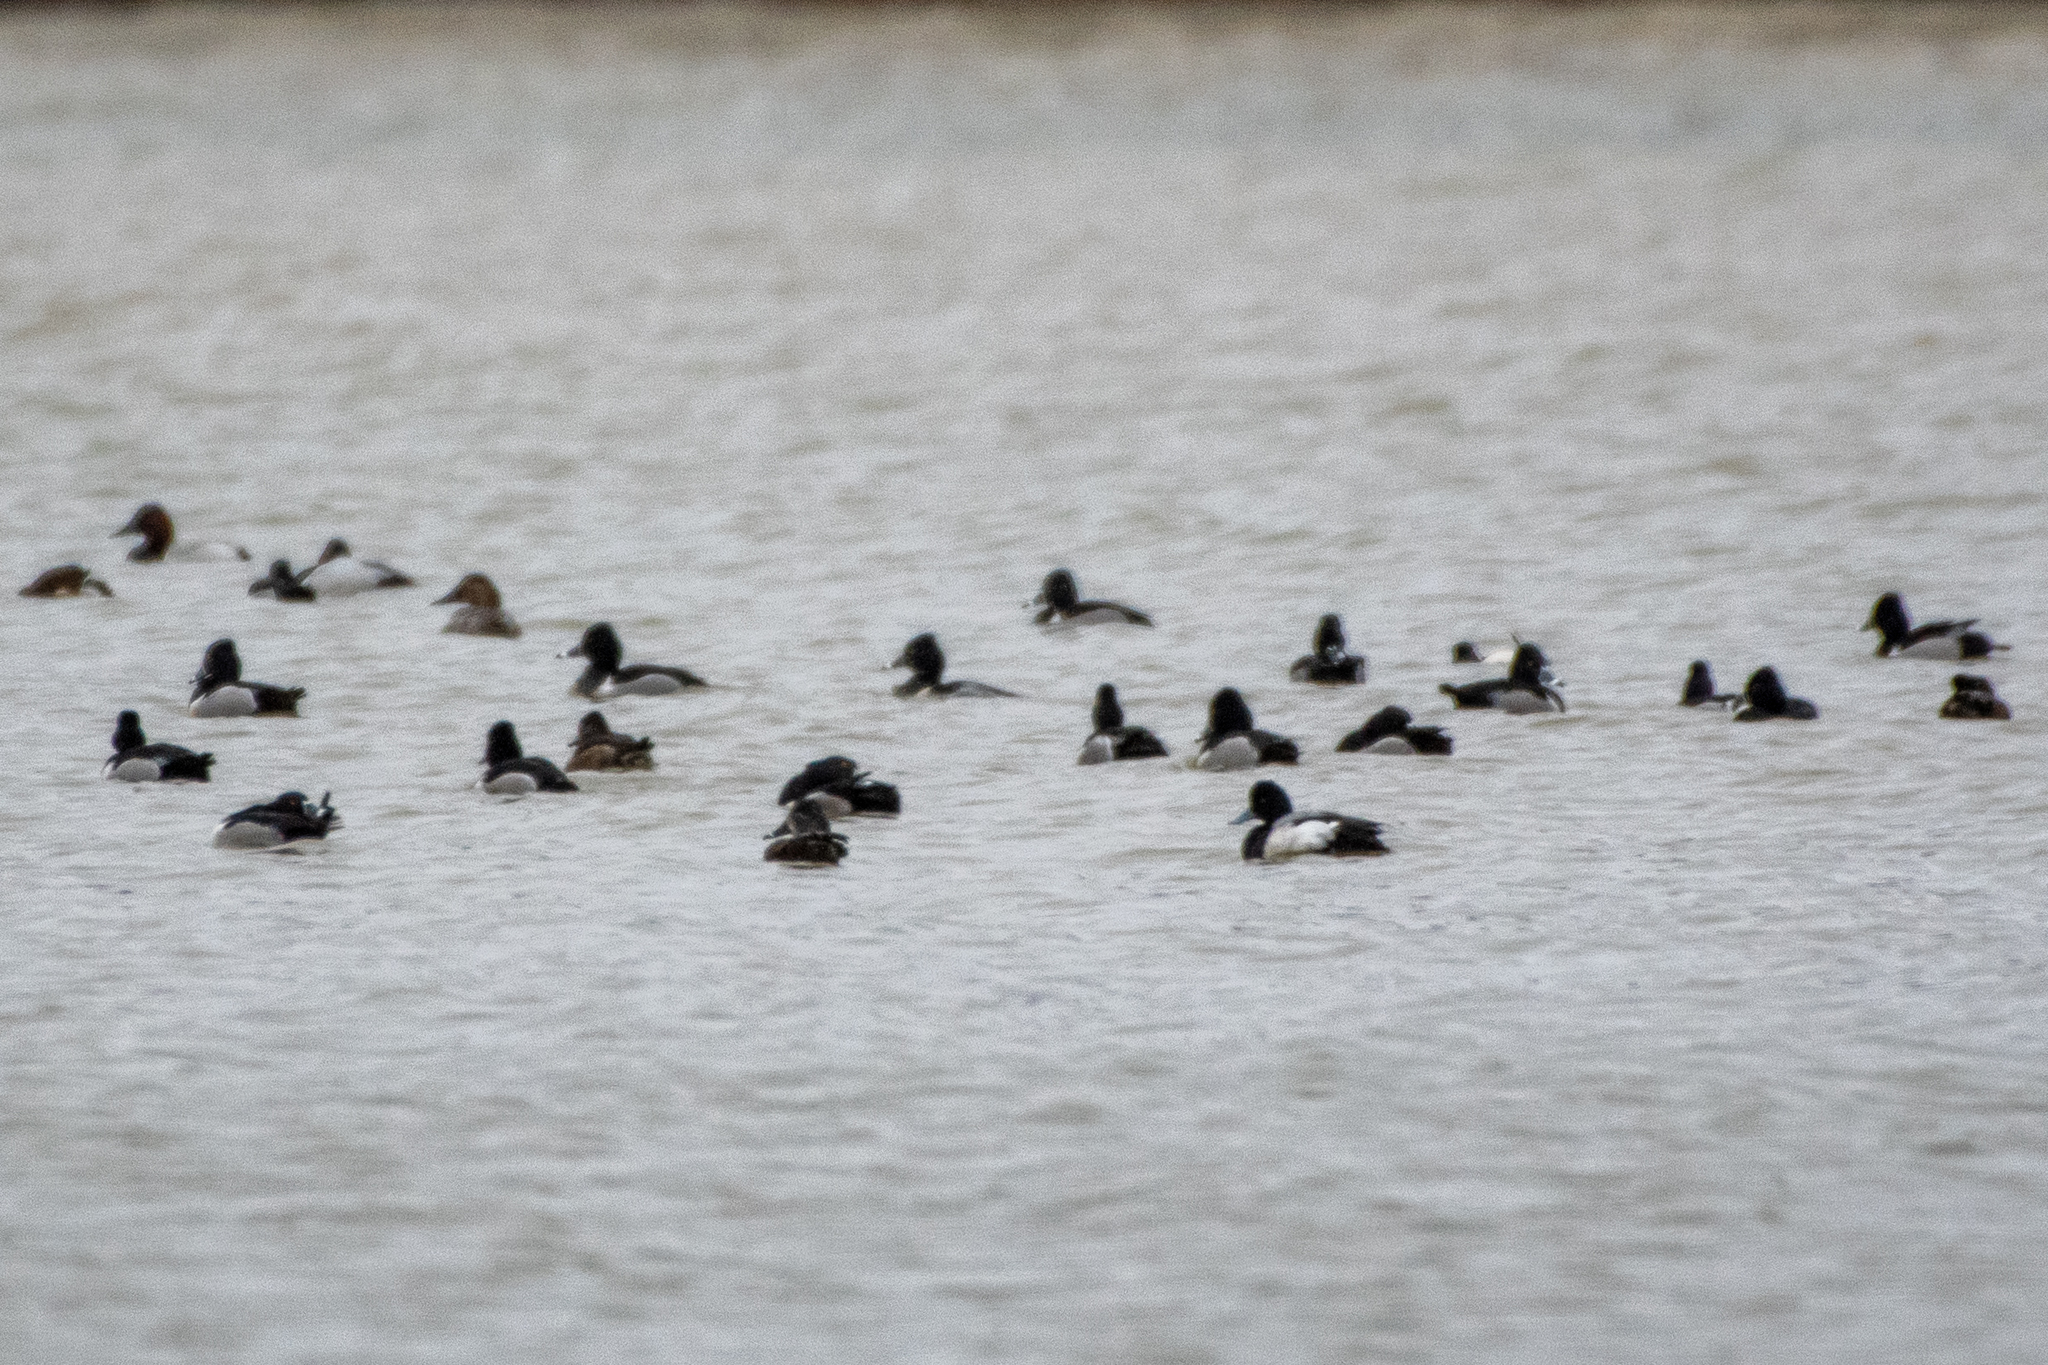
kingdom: Animalia
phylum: Chordata
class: Aves
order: Anseriformes
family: Anatidae
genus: Aythya
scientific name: Aythya marila
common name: Greater scaup
